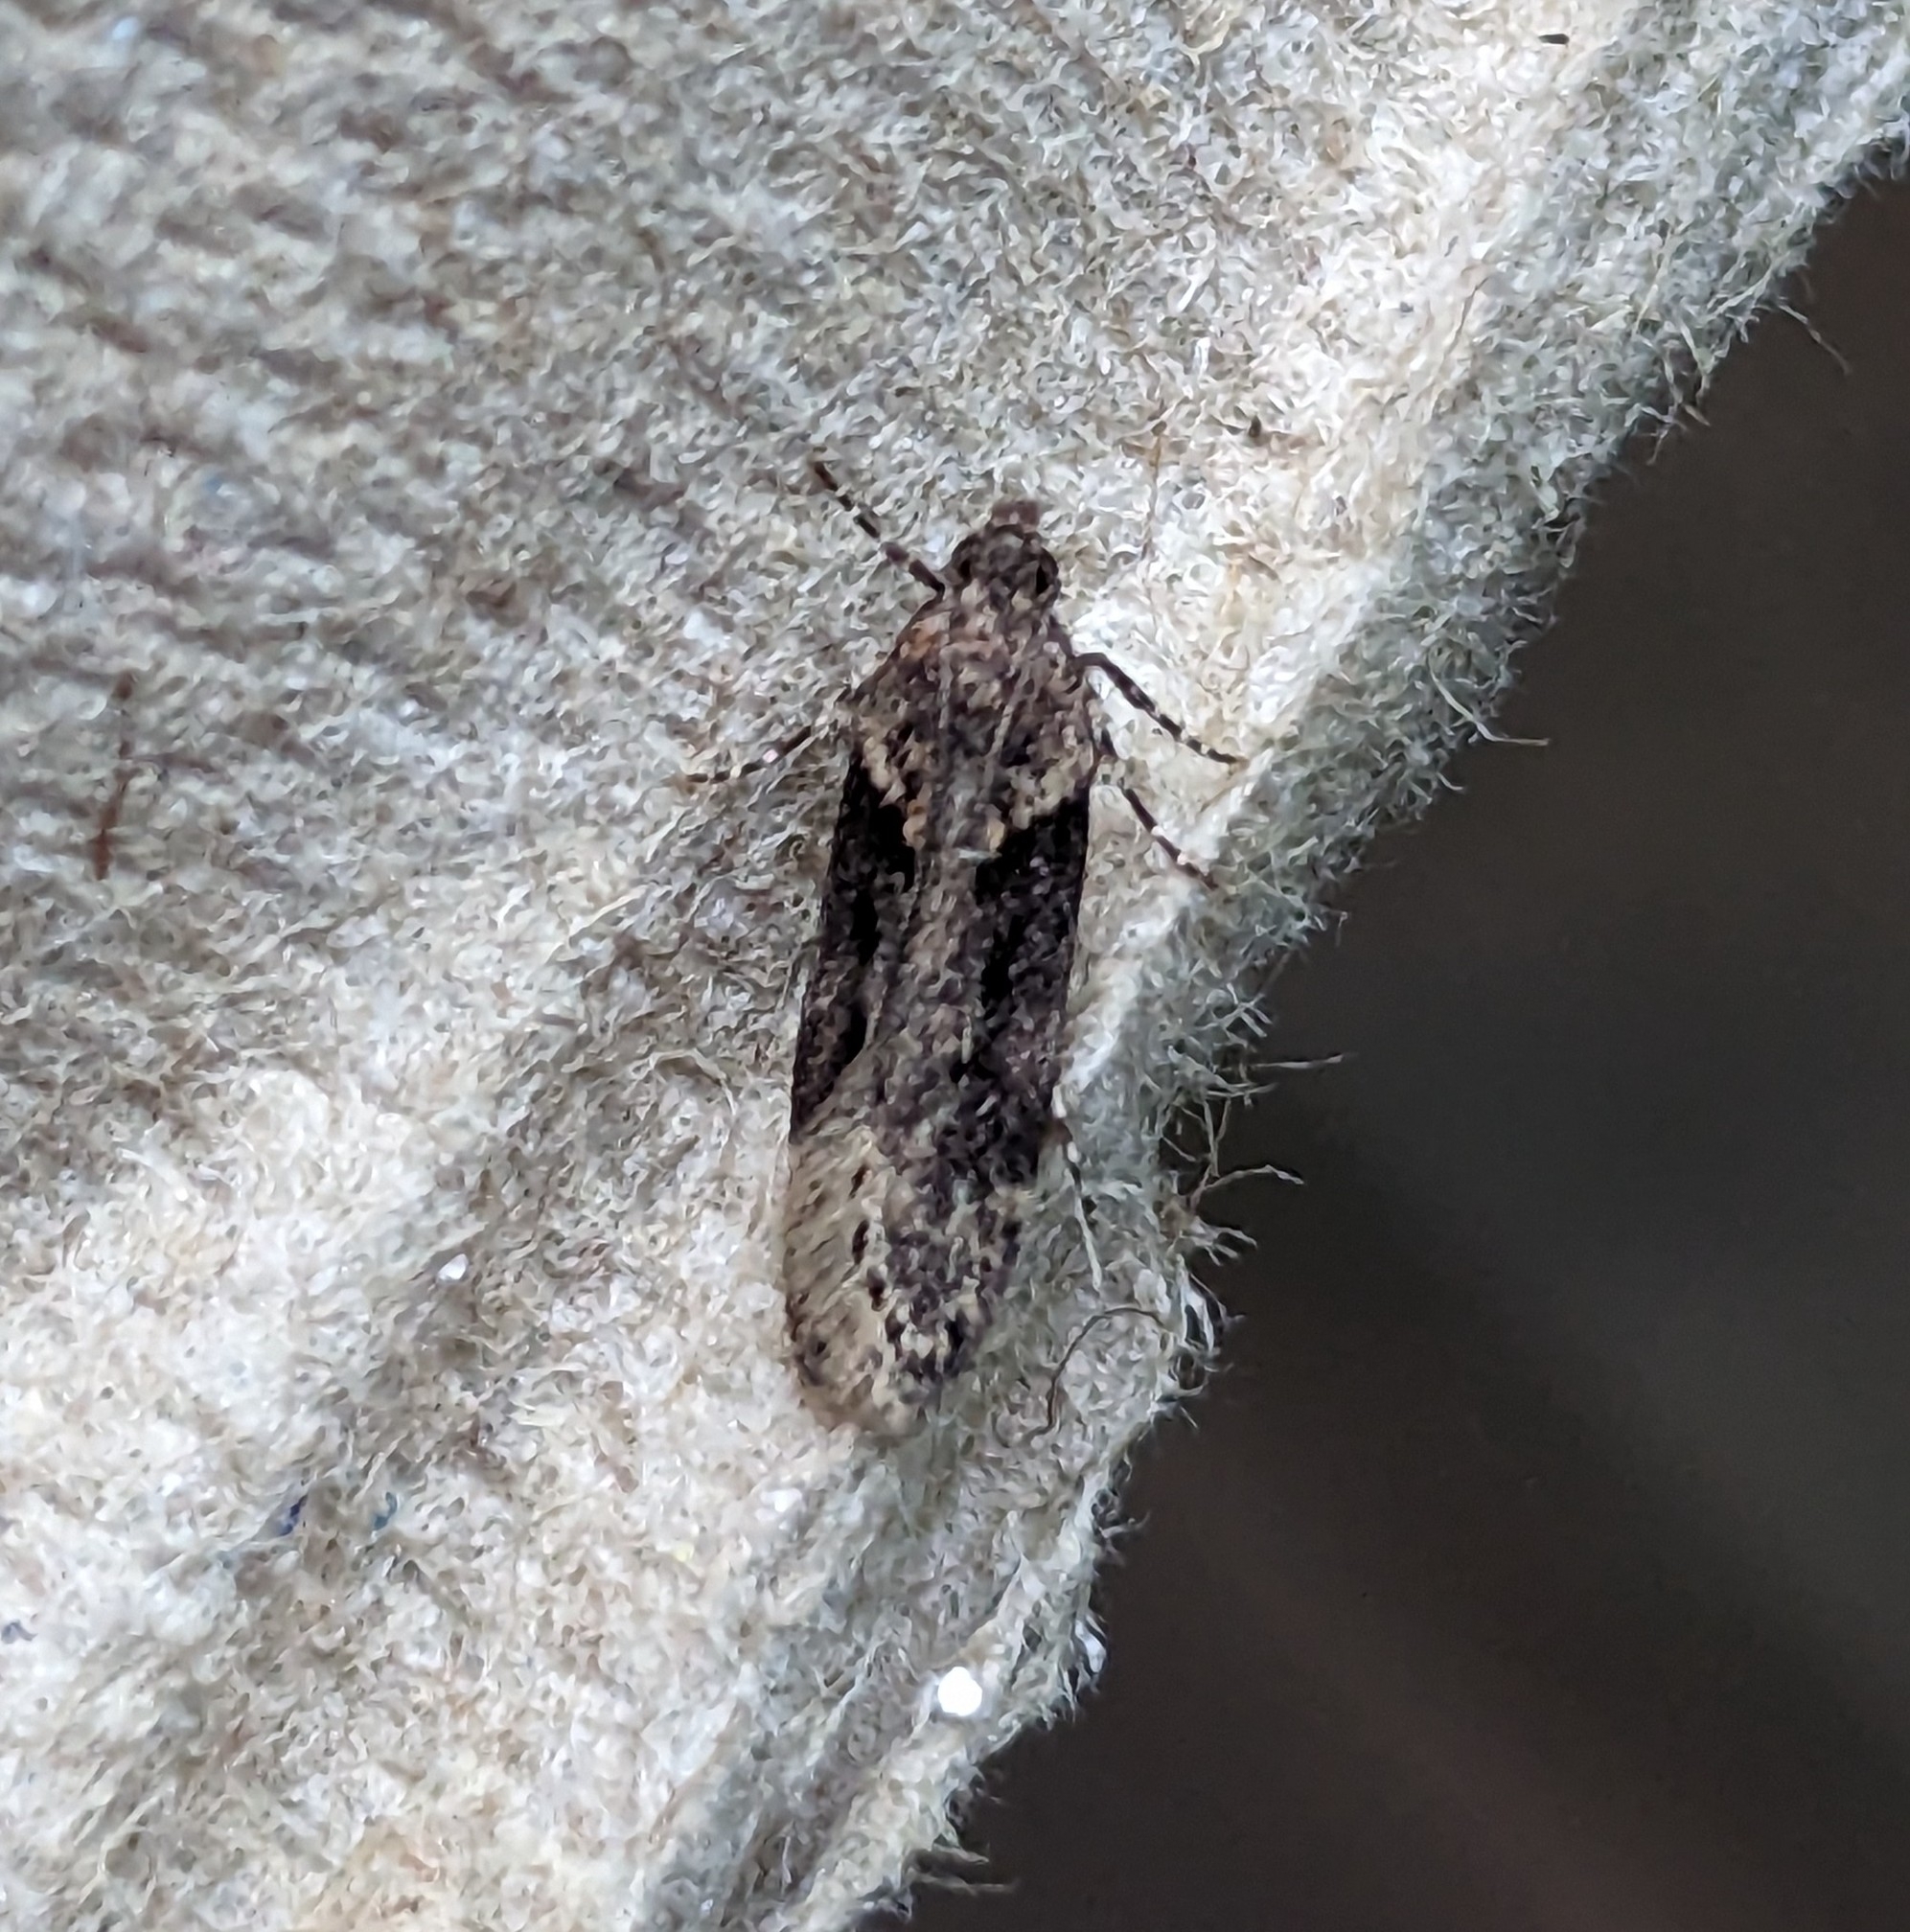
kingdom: Animalia
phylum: Arthropoda
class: Insecta
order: Lepidoptera
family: Gelechiidae
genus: Chionodes
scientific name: Chionodes mediofuscella
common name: Black-smudged chionodes moth
